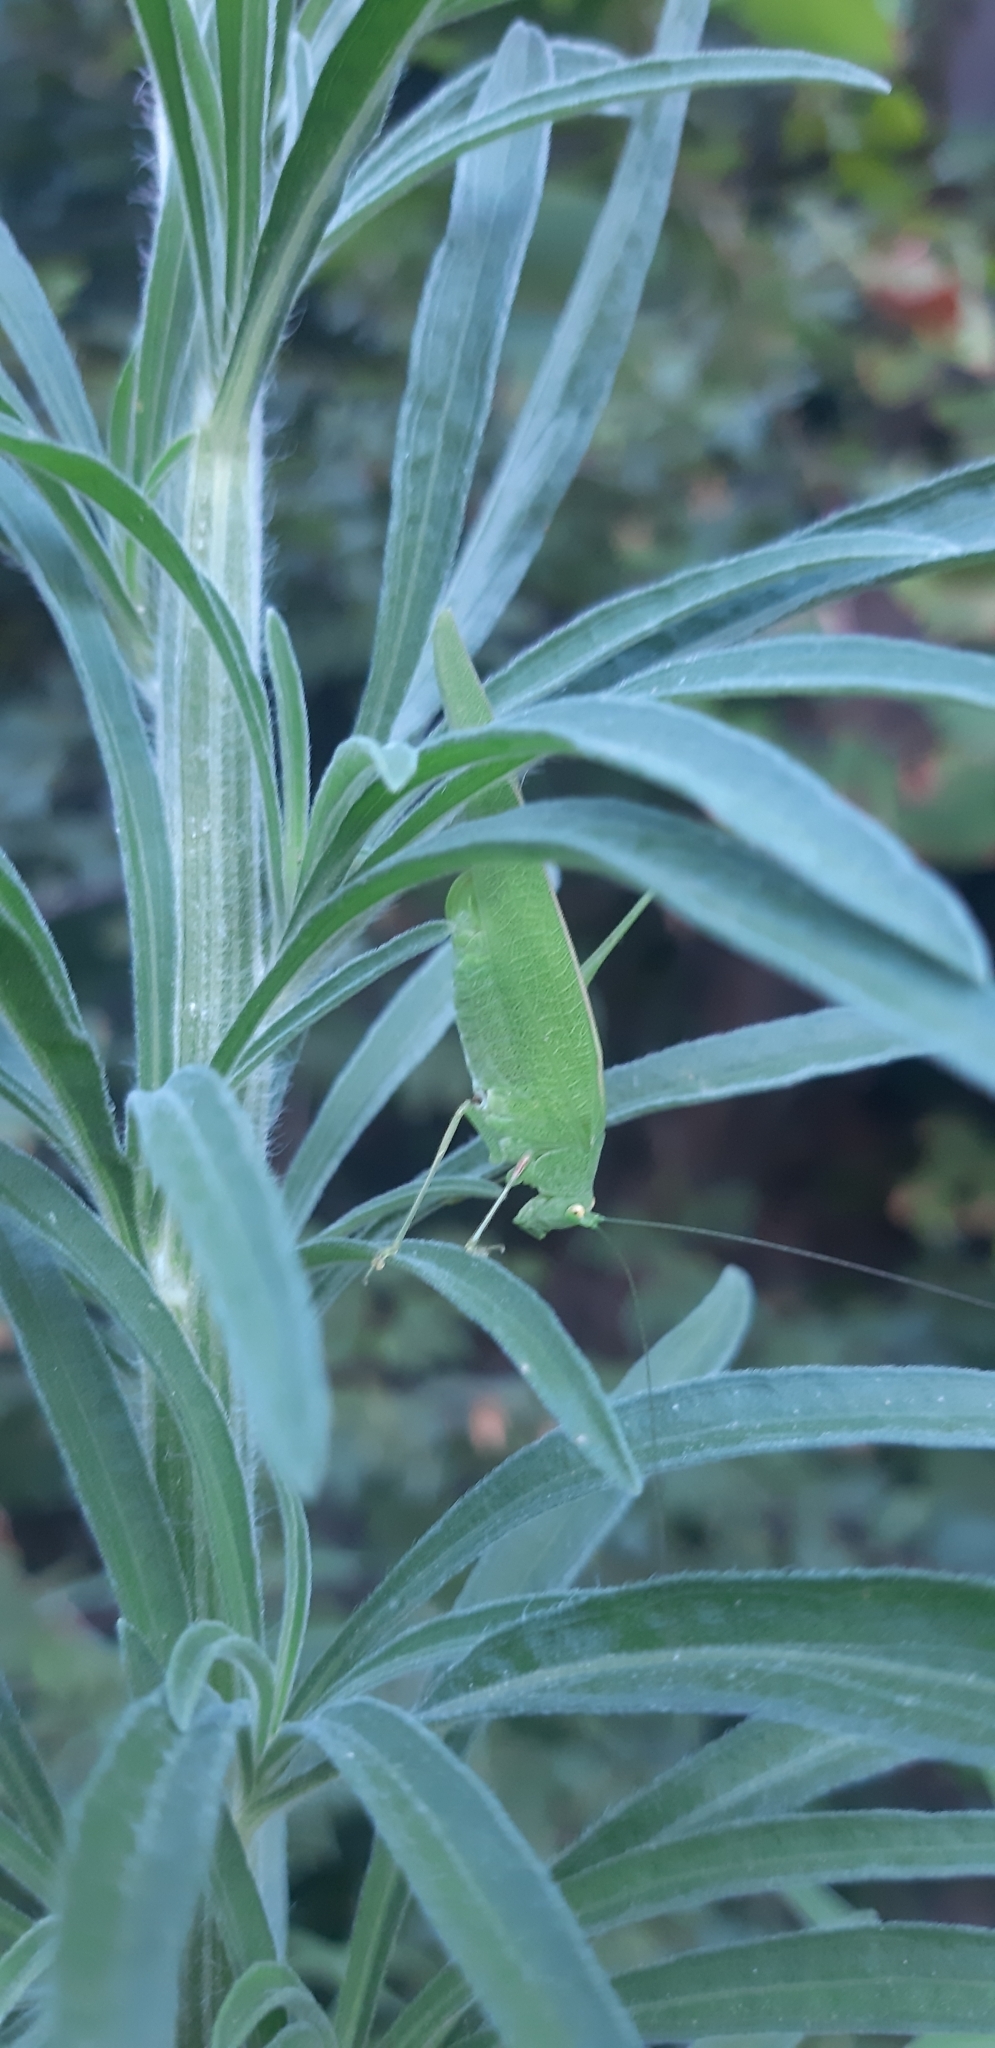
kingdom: Animalia
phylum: Arthropoda
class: Insecta
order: Orthoptera
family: Tettigoniidae
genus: Phaneroptera
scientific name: Phaneroptera nana
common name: Southern sickle bush-cricket
